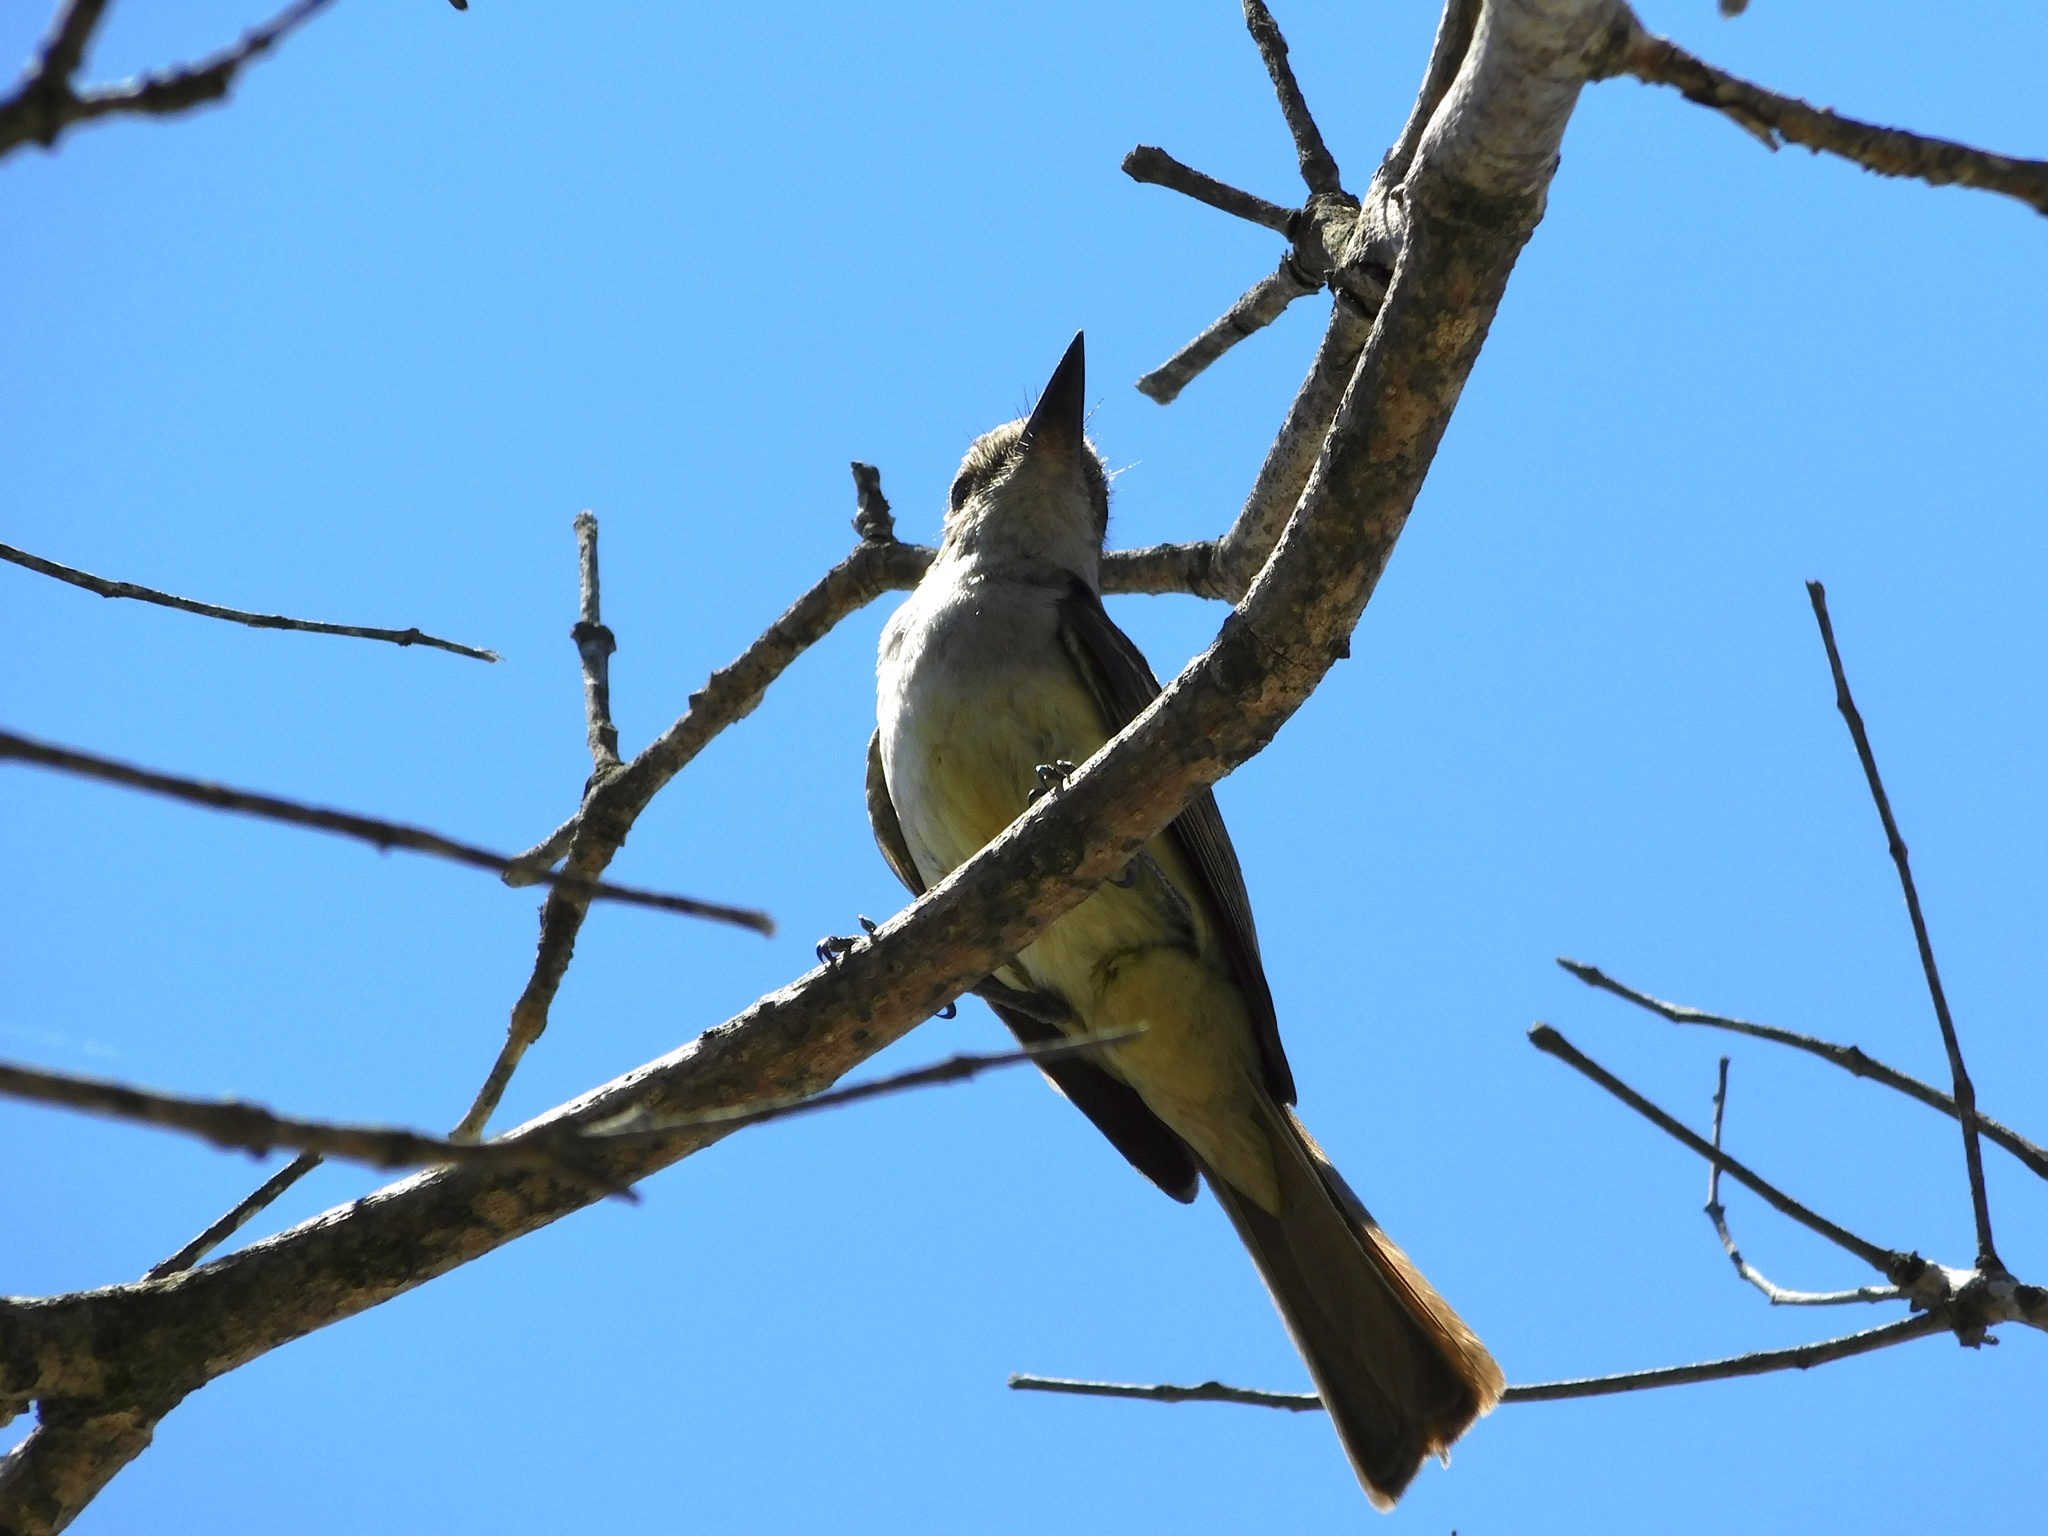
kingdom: Animalia
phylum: Chordata
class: Aves
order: Passeriformes
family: Tyrannidae
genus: Myiarchus
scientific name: Myiarchus cinerascens
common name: Ash-throated flycatcher
